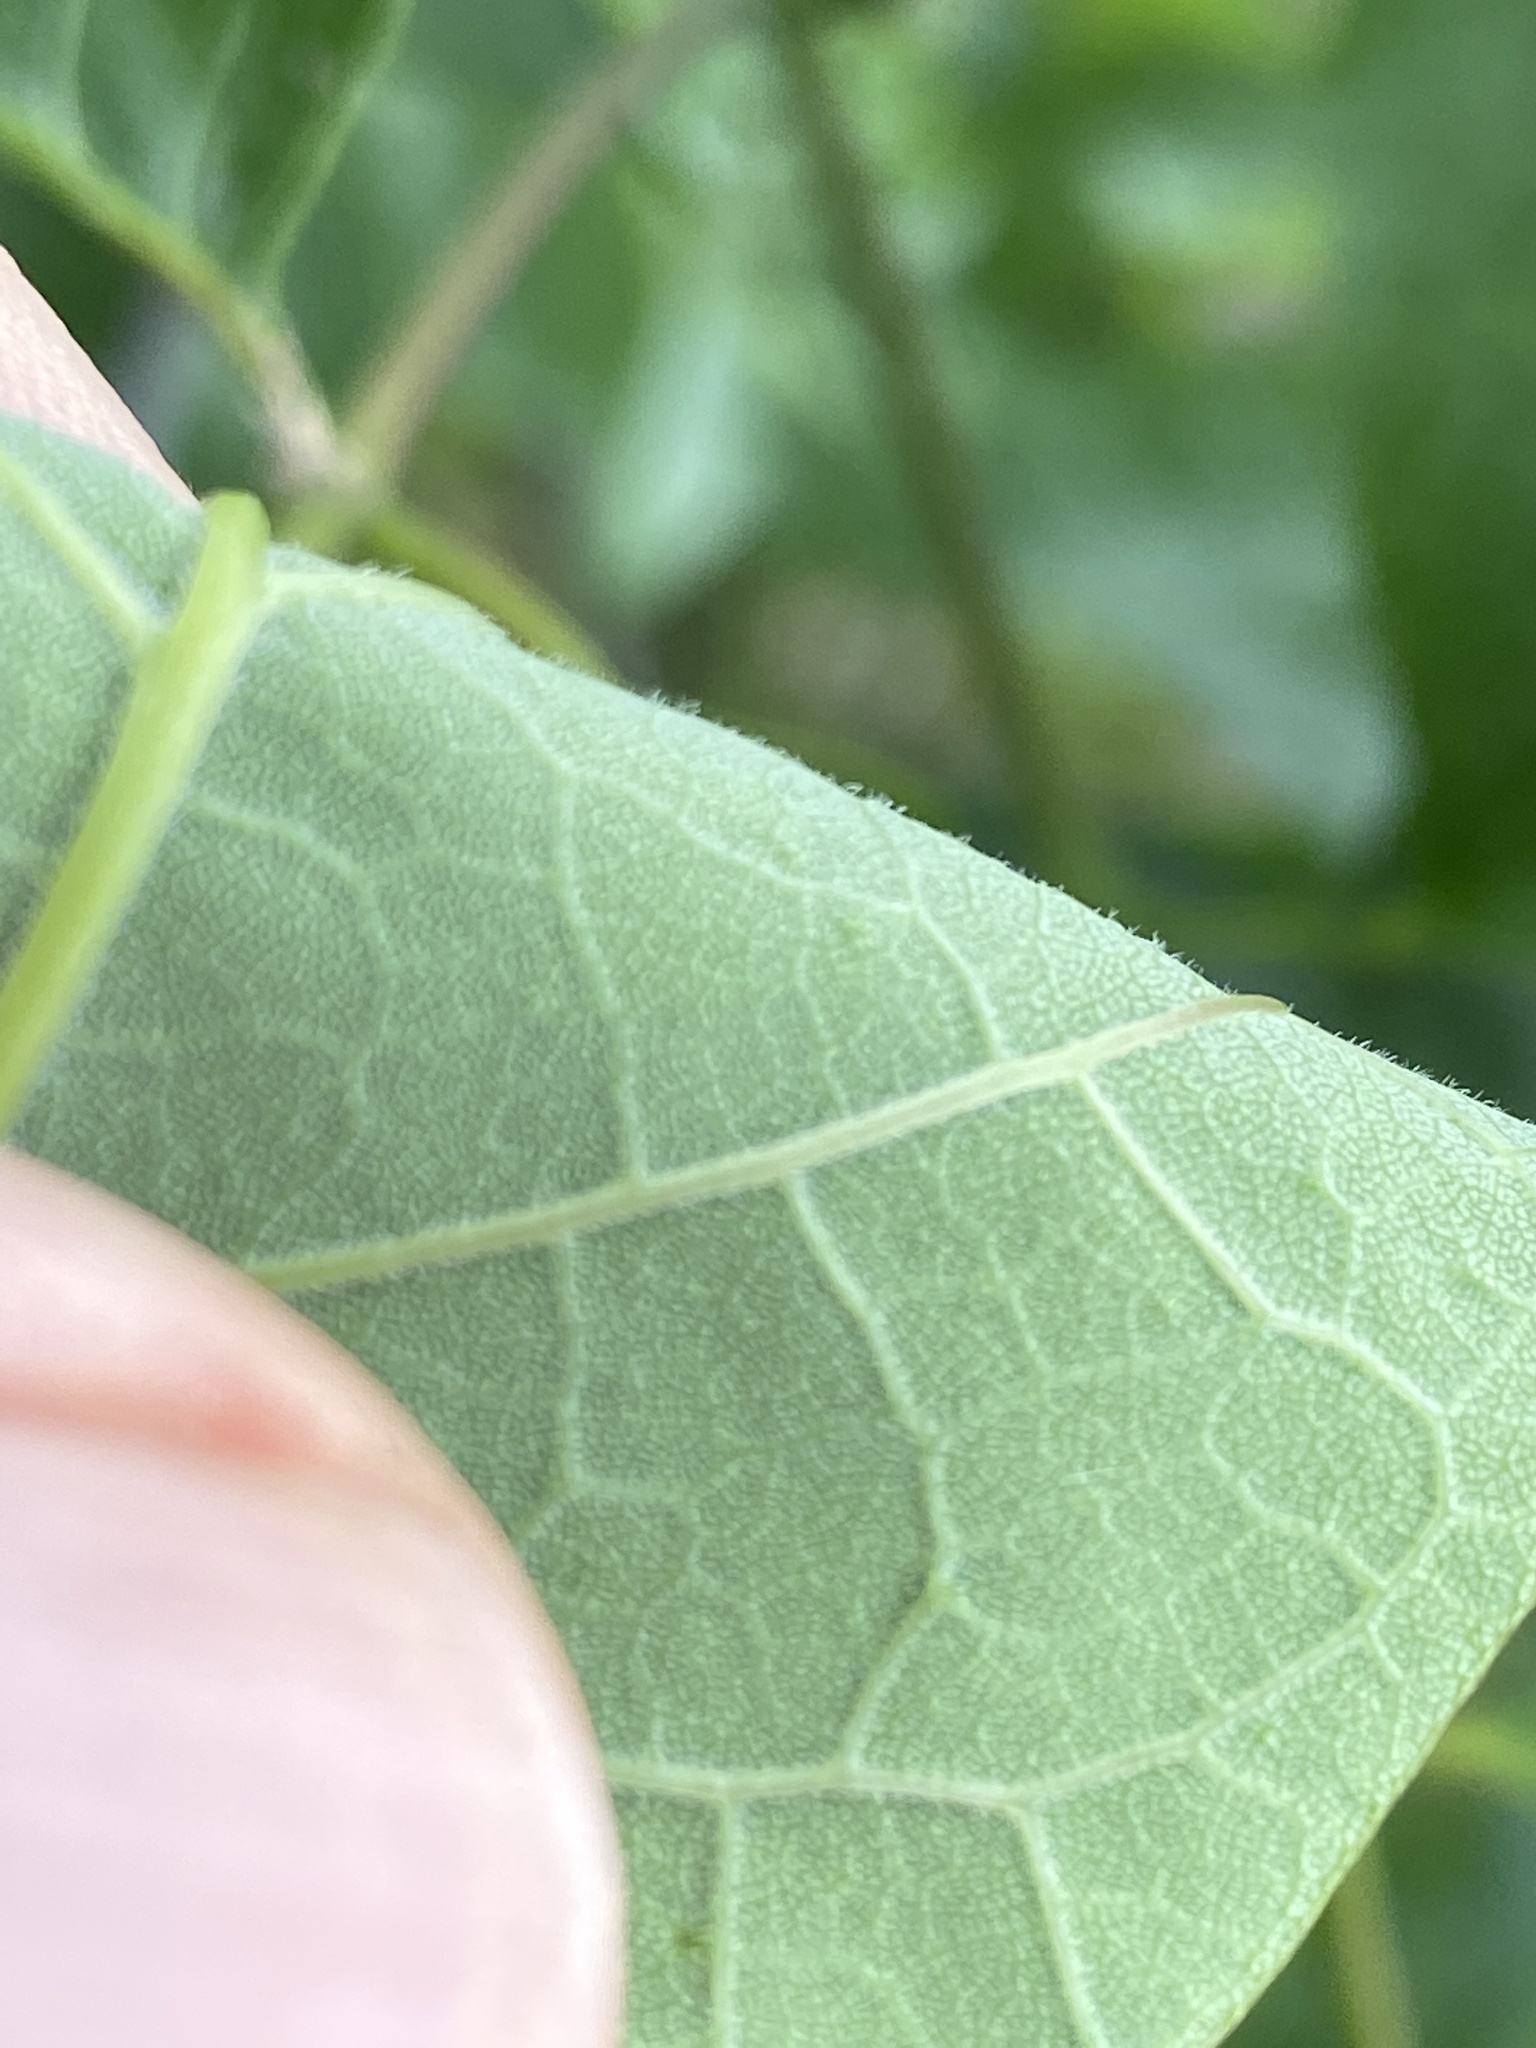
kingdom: Plantae
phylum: Tracheophyta
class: Magnoliopsida
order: Lamiales
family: Oleaceae
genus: Fraxinus
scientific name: Fraxinus americana
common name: White ash
